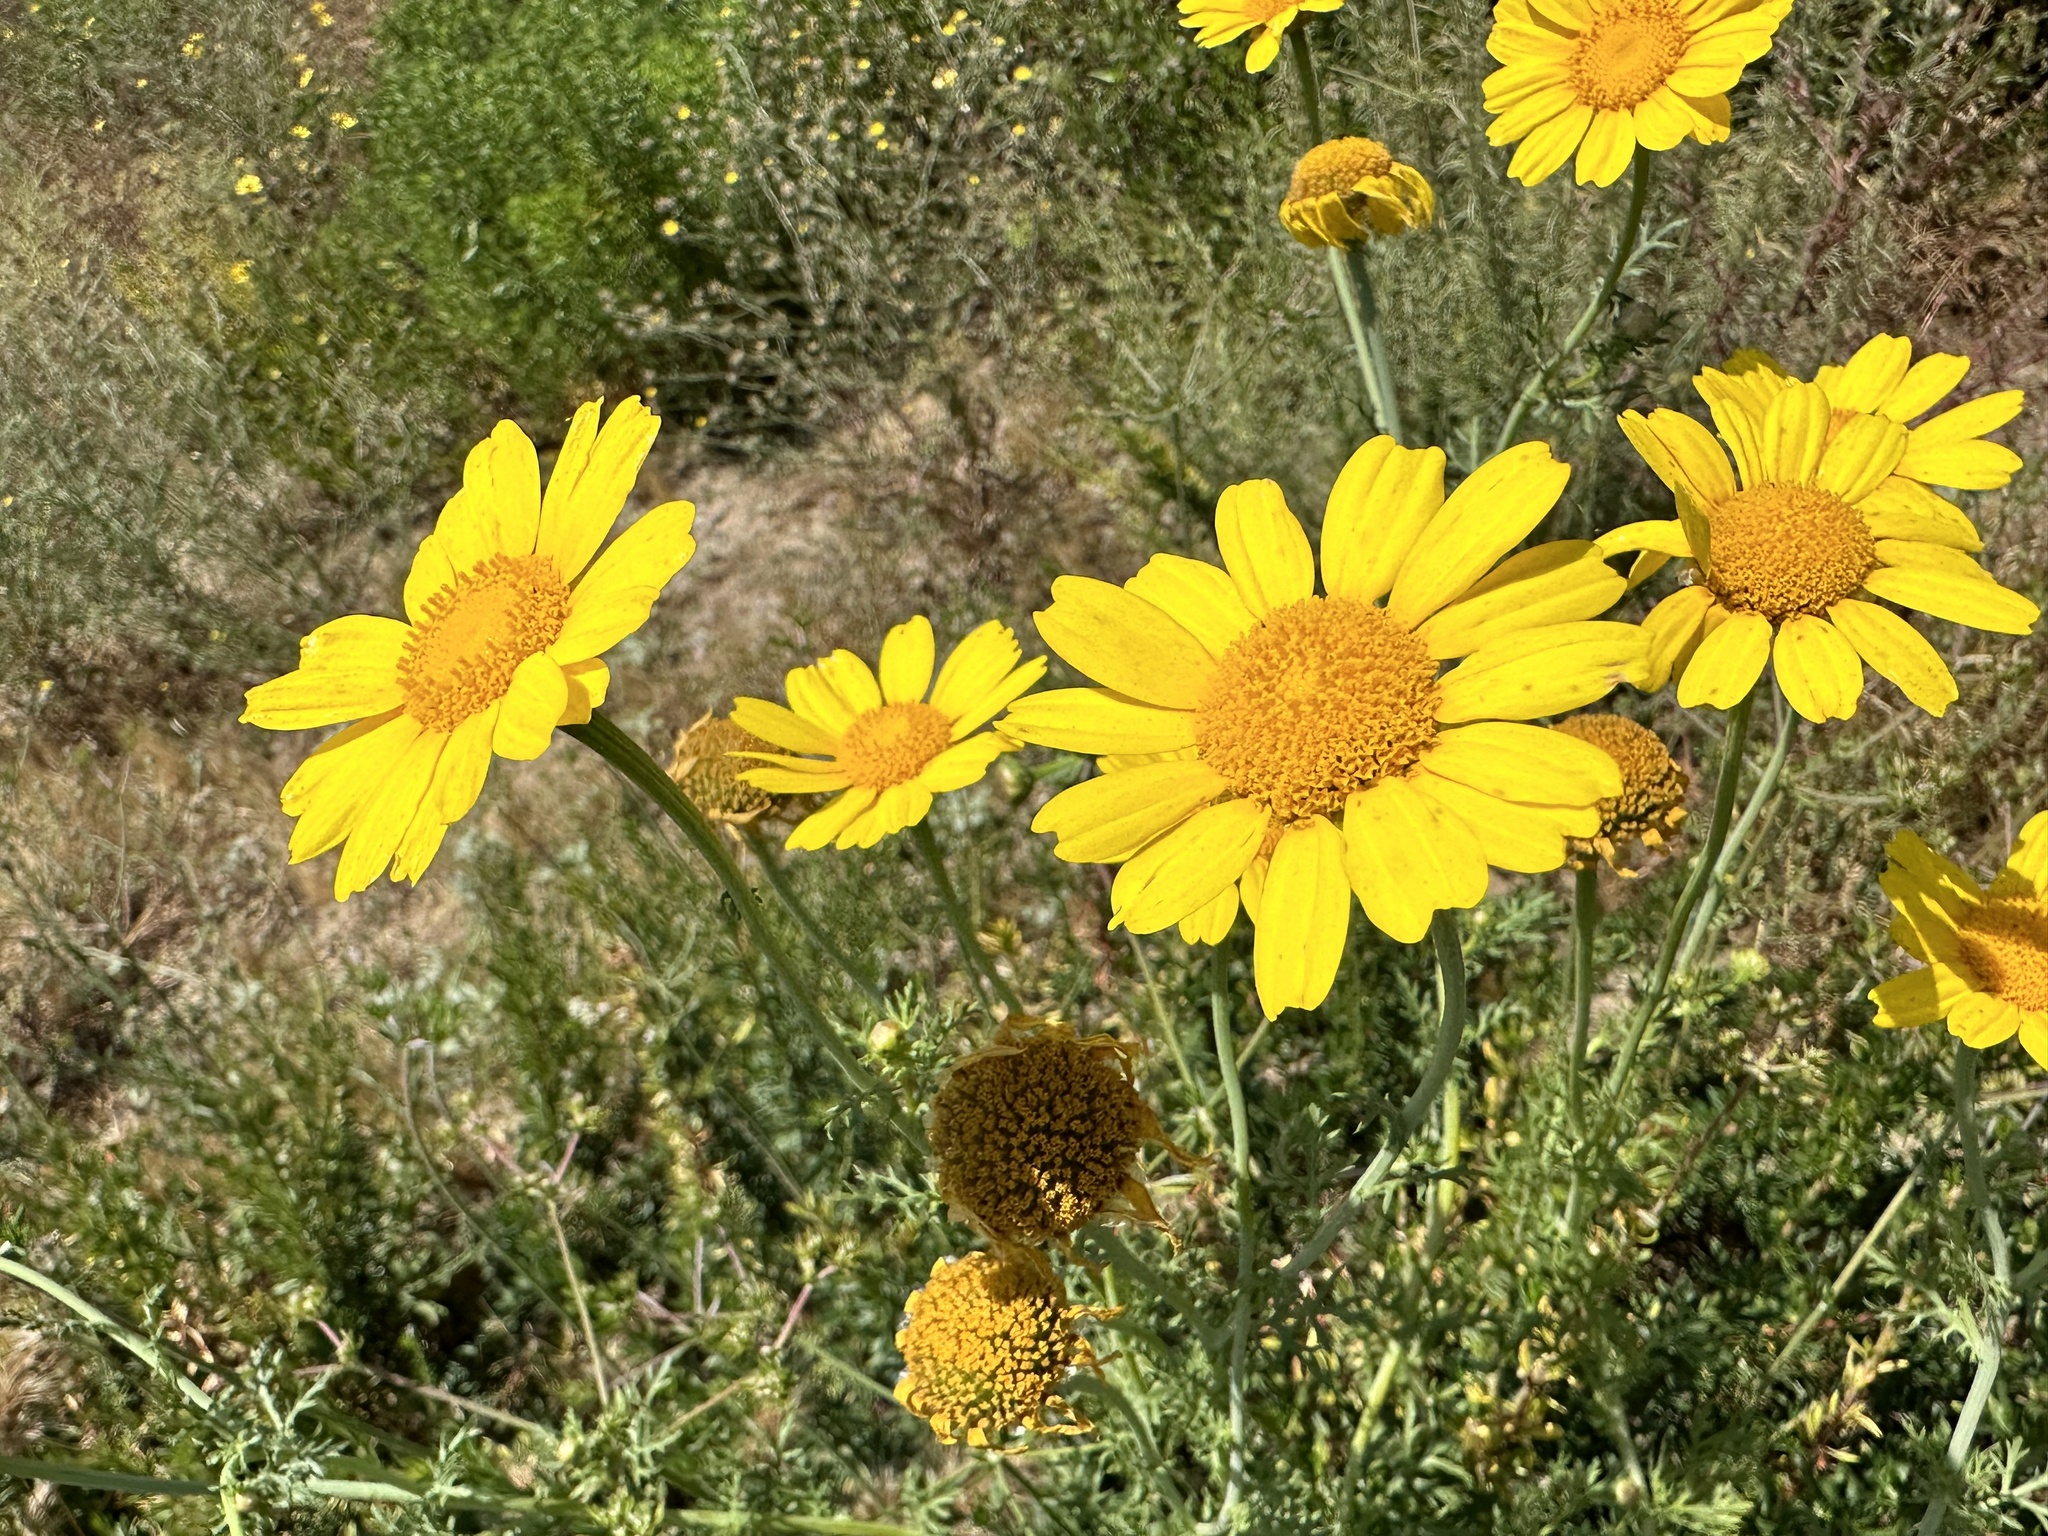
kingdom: Plantae
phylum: Tracheophyta
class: Magnoliopsida
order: Asterales
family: Asteraceae
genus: Glebionis
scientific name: Glebionis coronaria
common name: Crowndaisy
